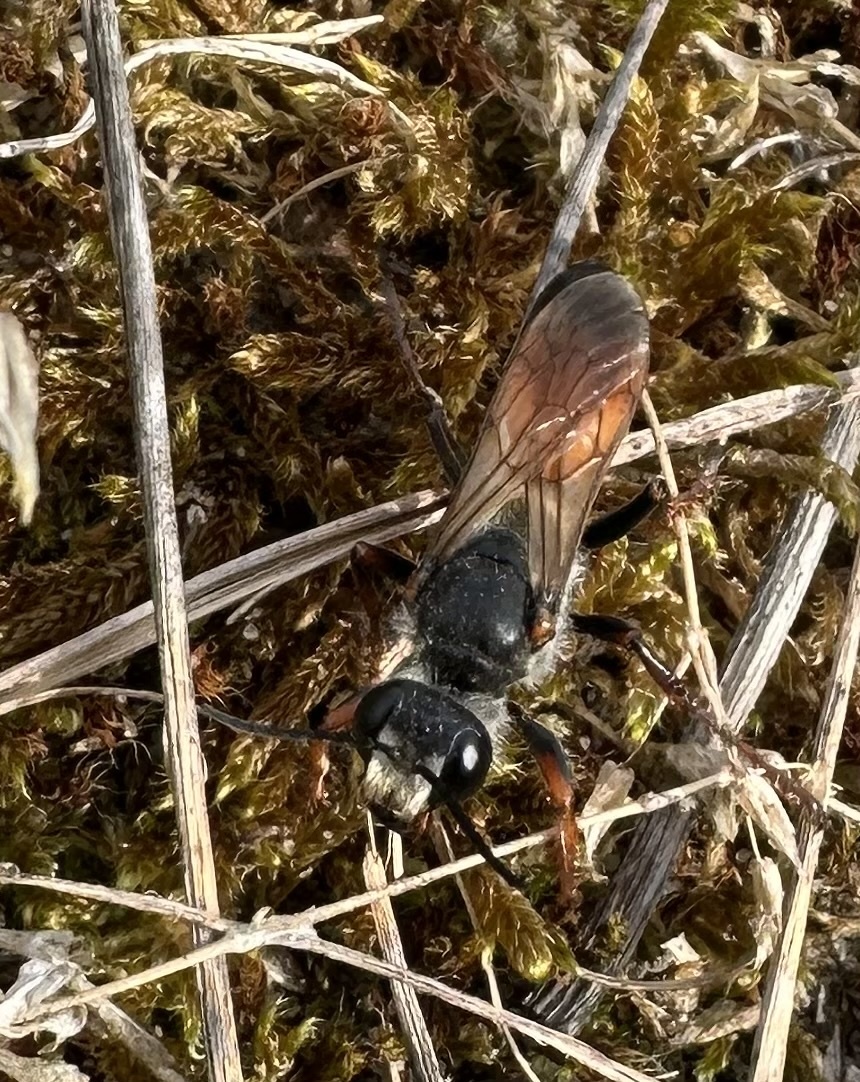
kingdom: Animalia
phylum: Arthropoda
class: Insecta
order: Hymenoptera
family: Sphecidae
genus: Sphex
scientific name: Sphex funerarius
